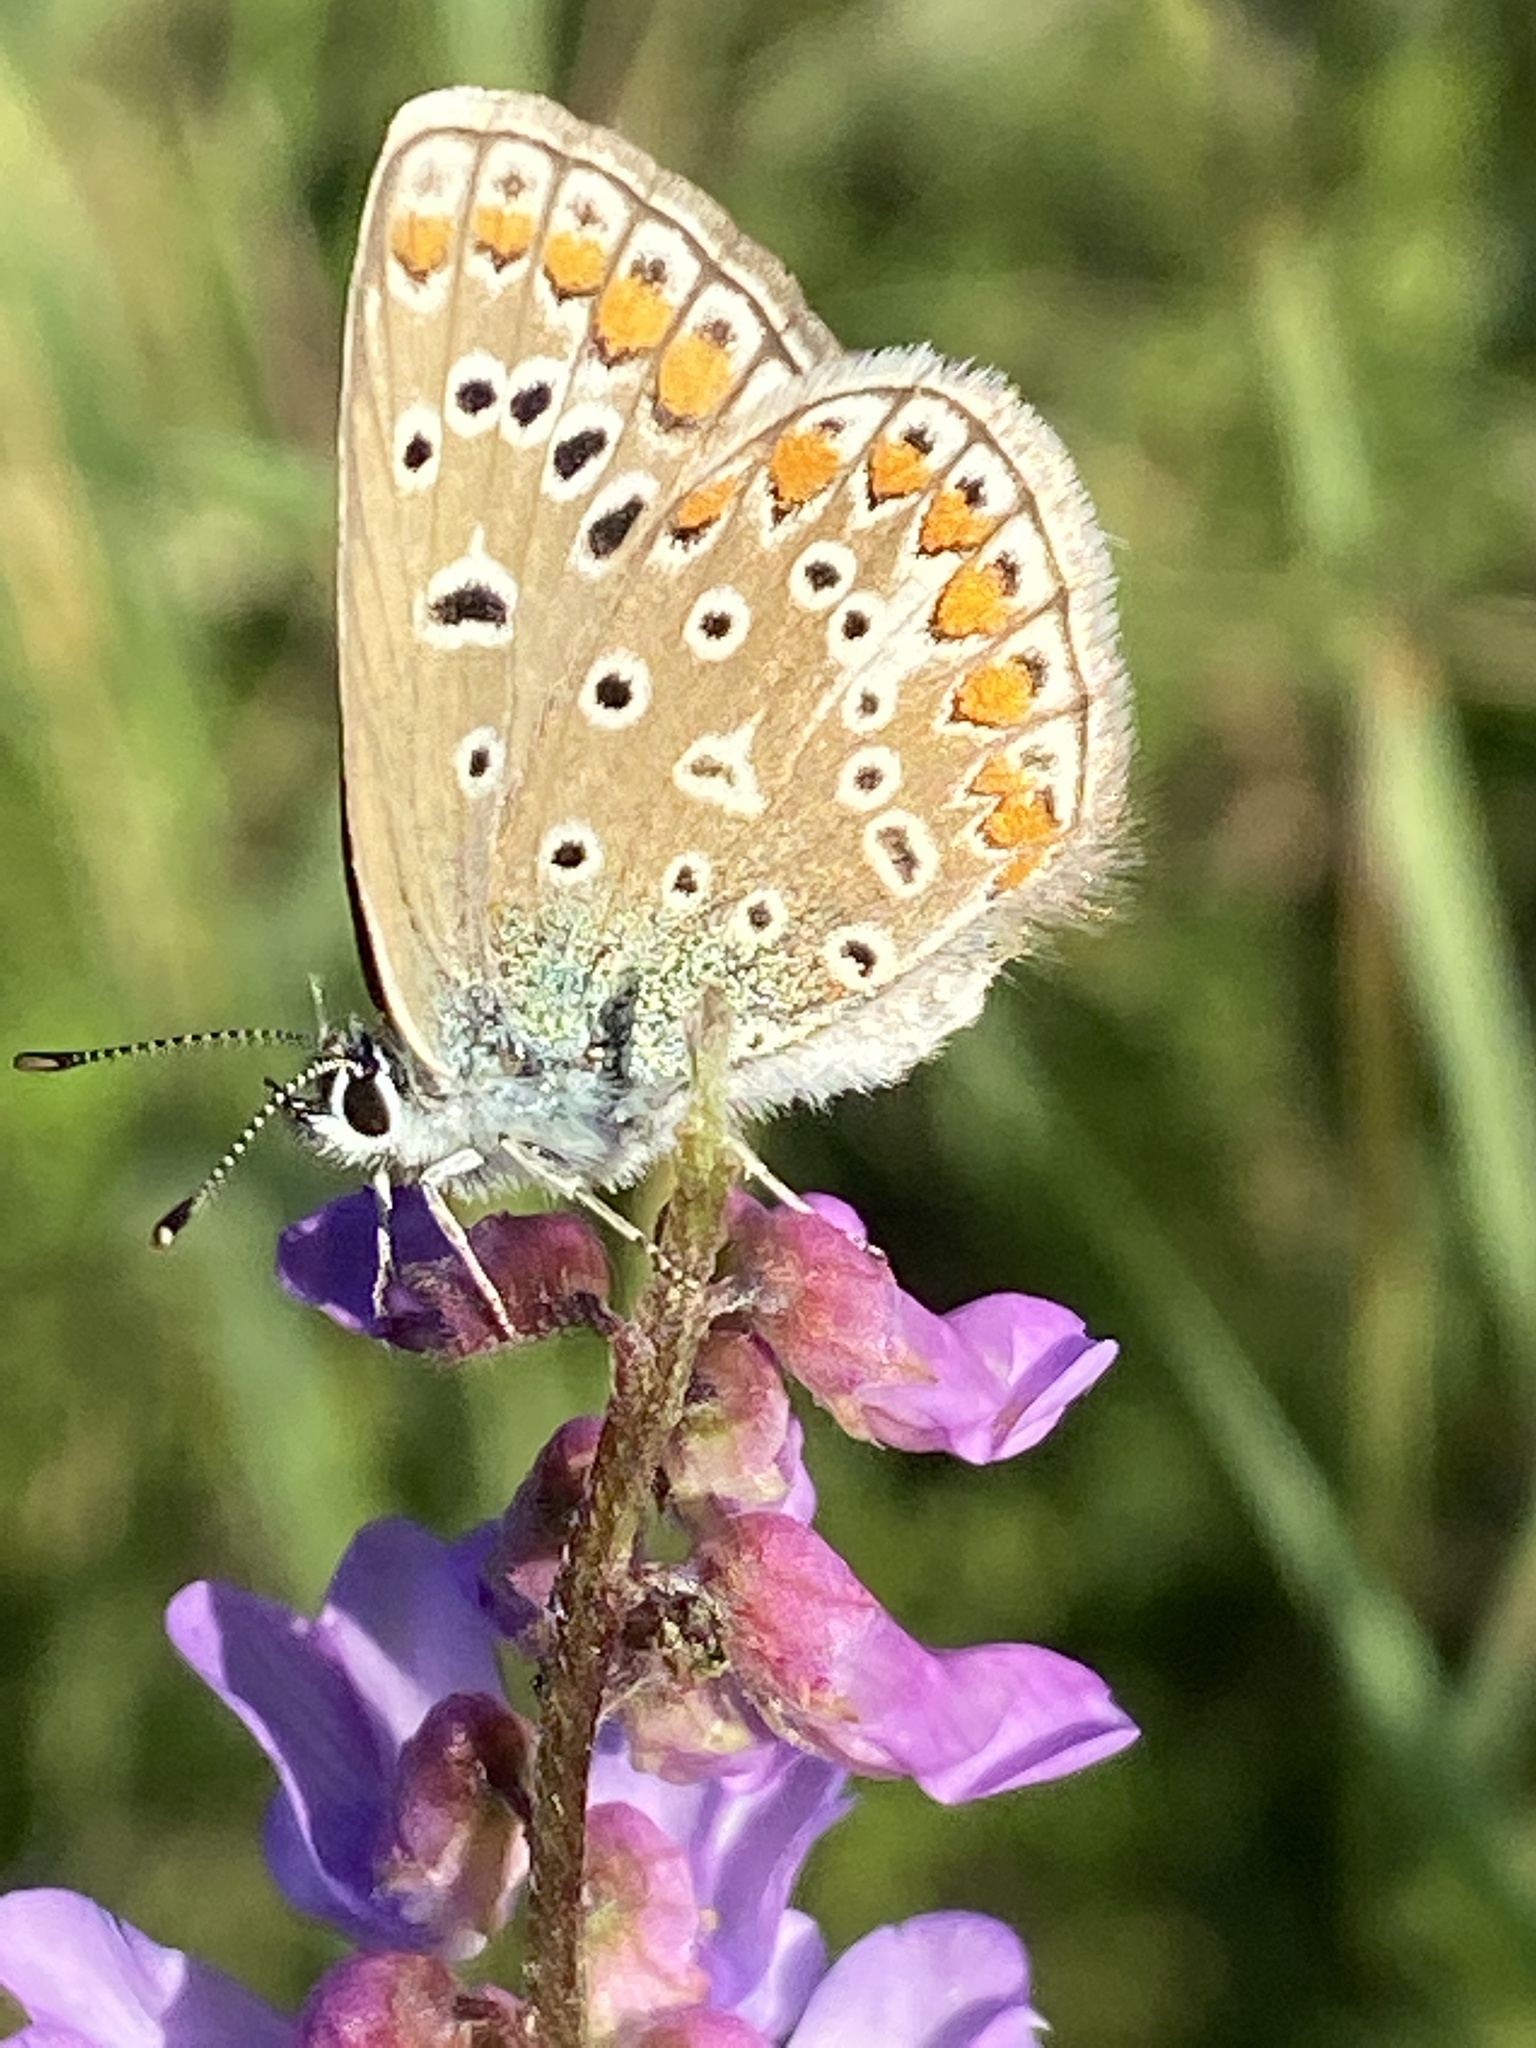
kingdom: Animalia
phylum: Arthropoda
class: Insecta
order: Lepidoptera
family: Lycaenidae
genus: Polyommatus
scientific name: Polyommatus icarus
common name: Common blue
